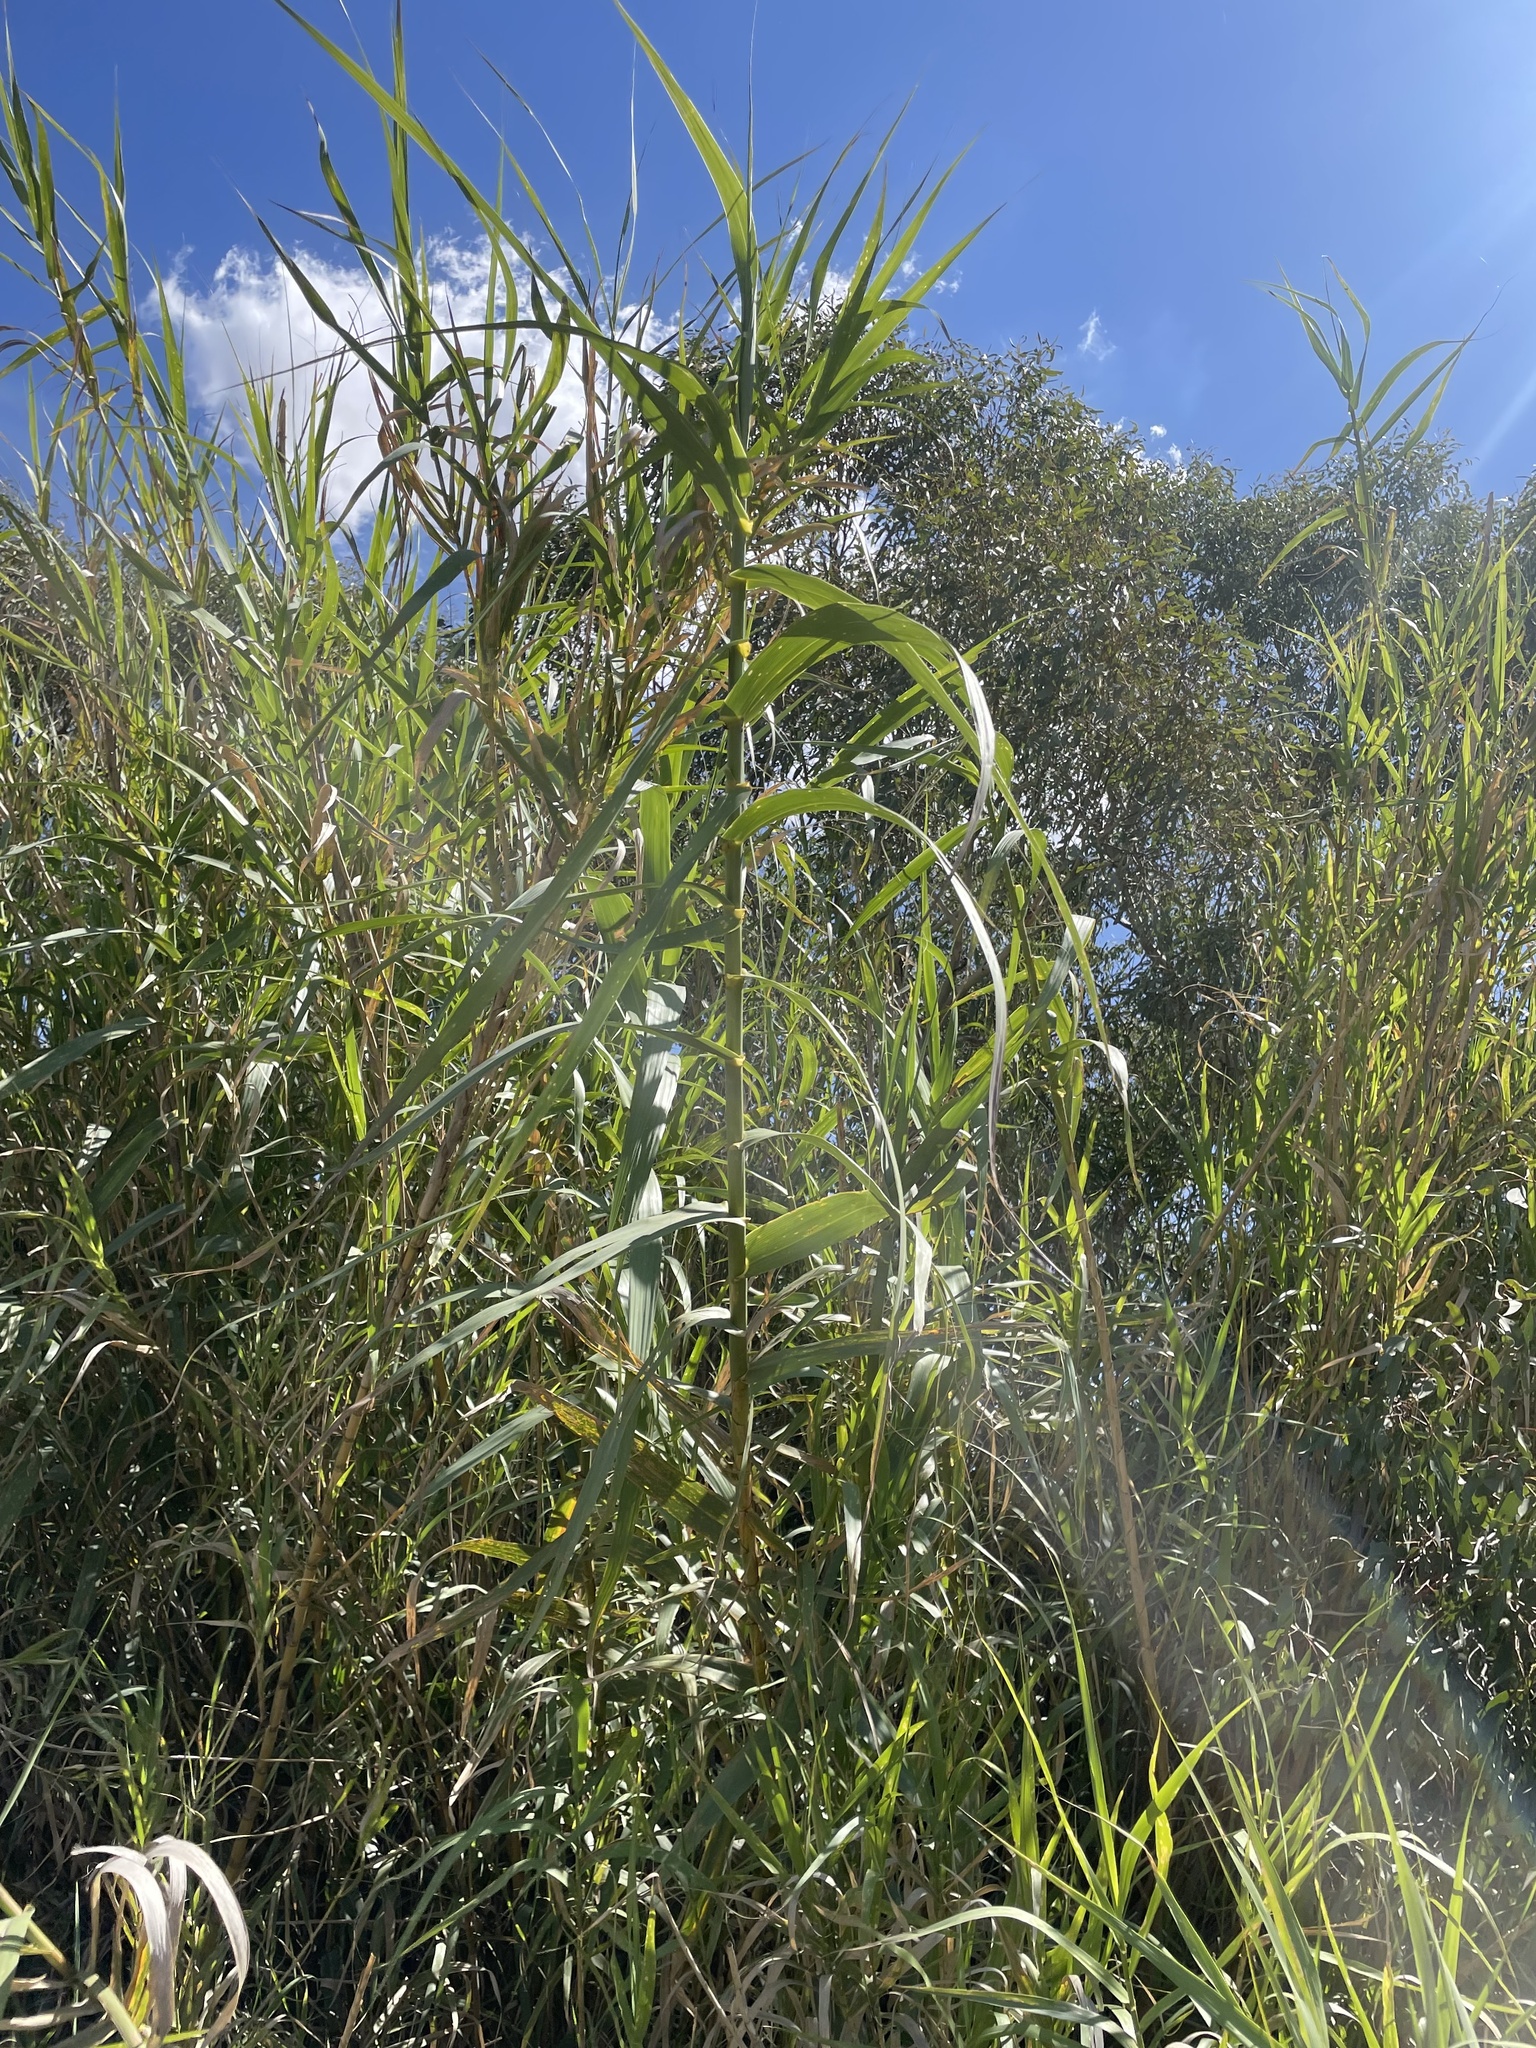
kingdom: Plantae
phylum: Tracheophyta
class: Liliopsida
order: Poales
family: Poaceae
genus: Arundo
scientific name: Arundo donax
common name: Giant reed
